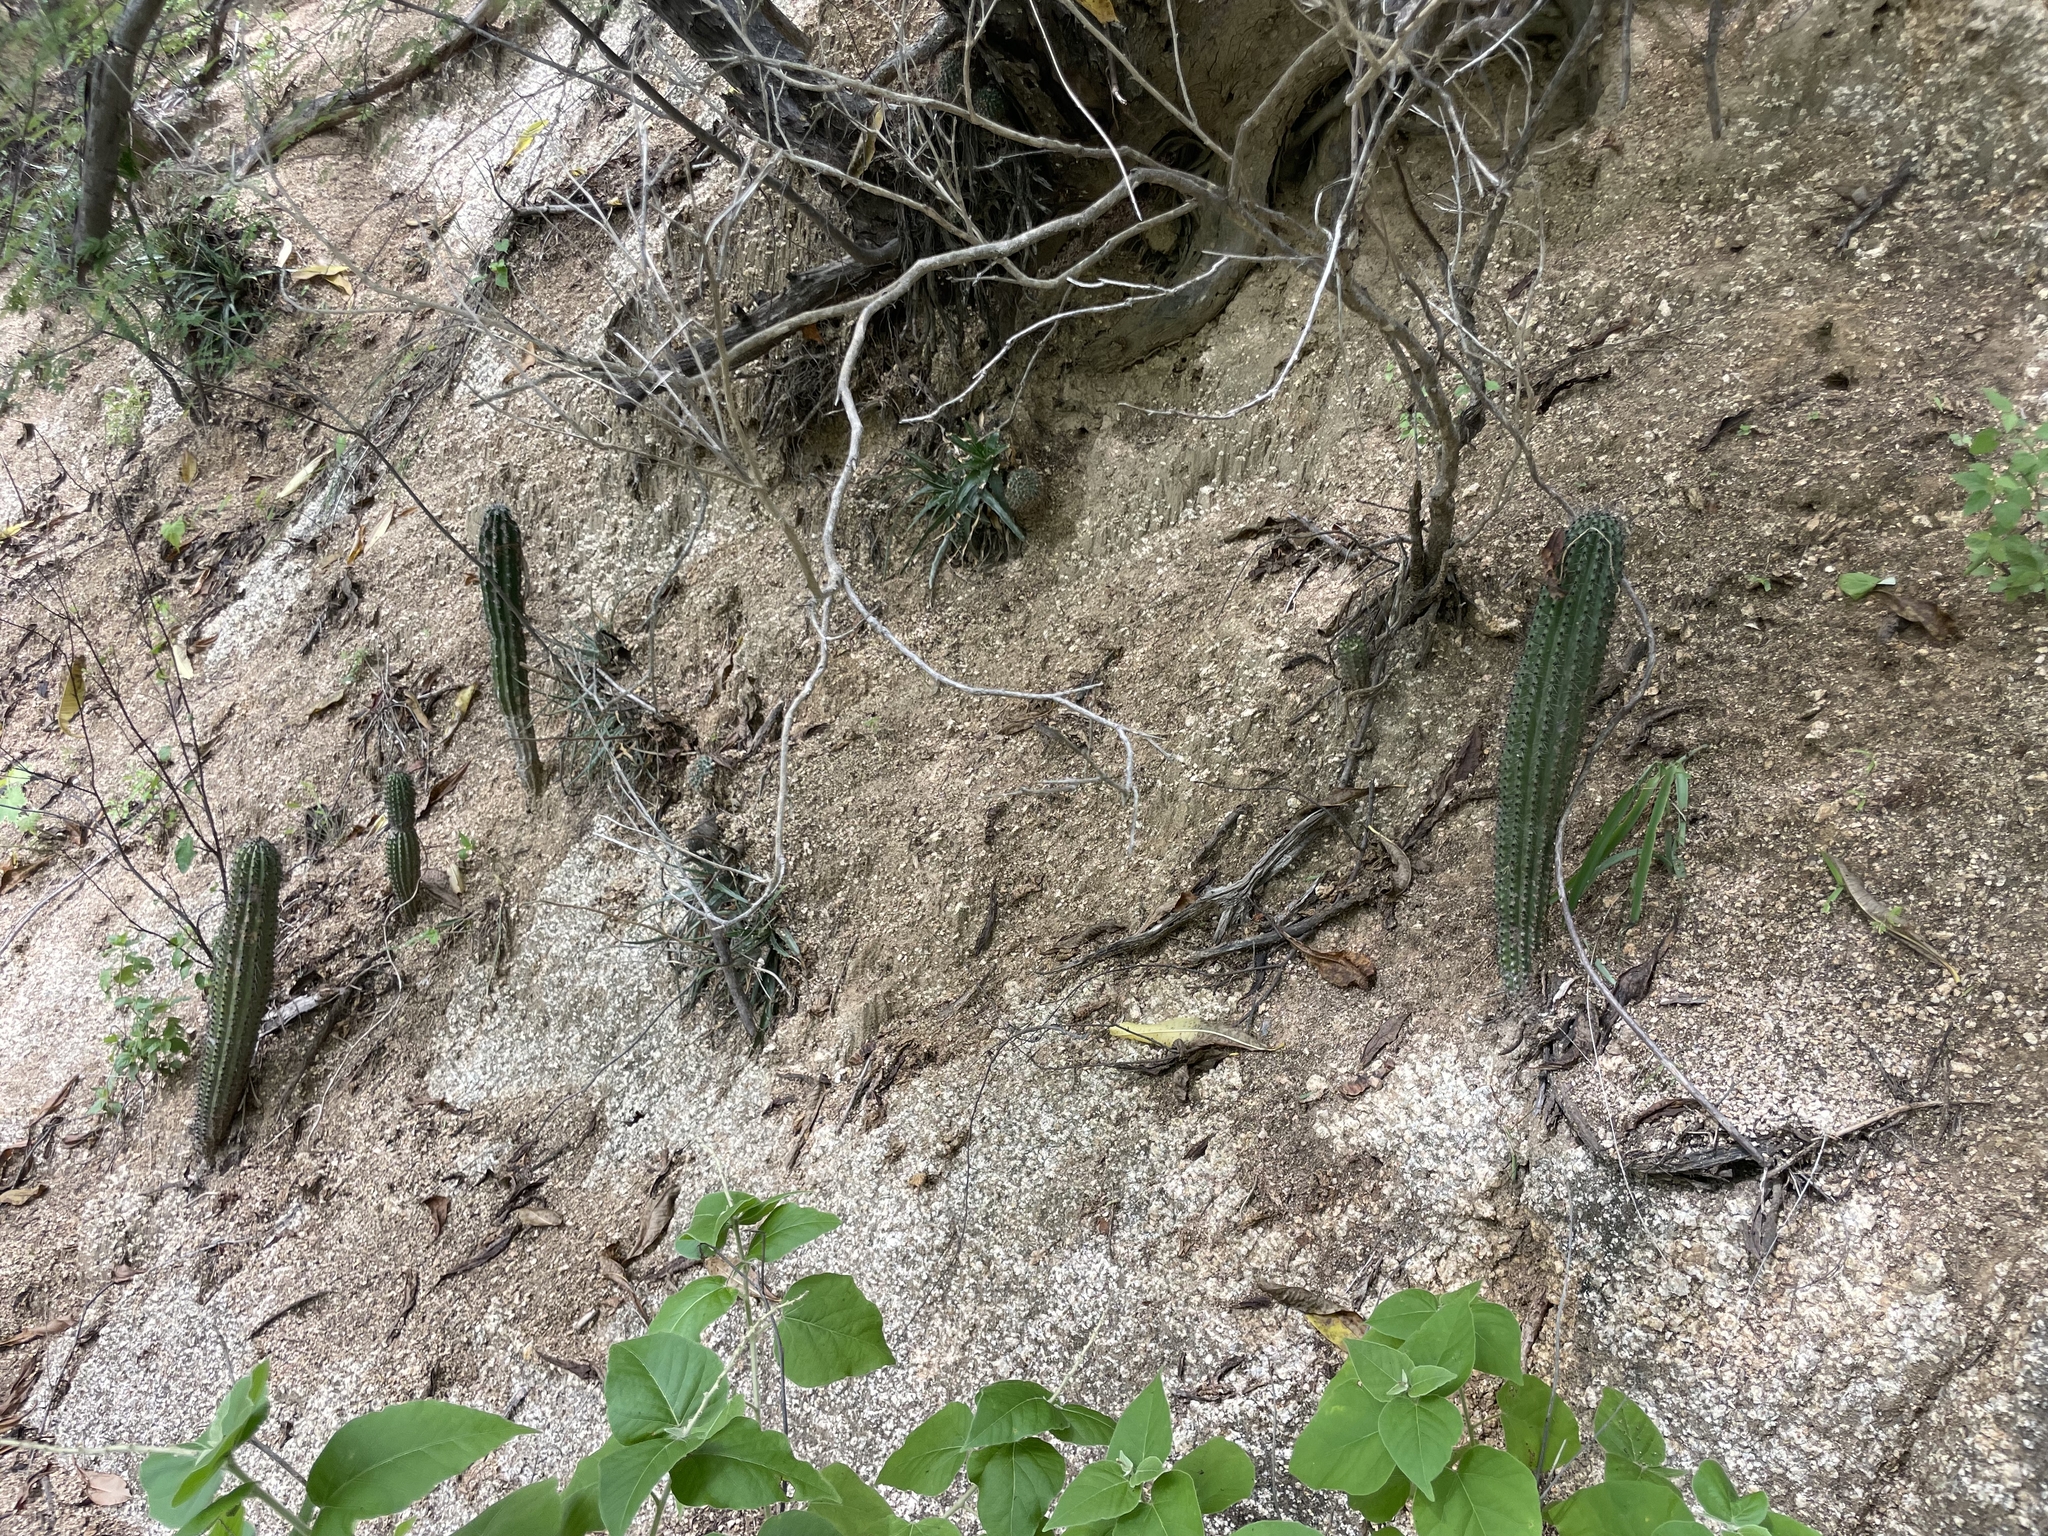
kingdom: Plantae
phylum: Tracheophyta
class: Magnoliopsida
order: Caryophyllales
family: Cactaceae
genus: Stenocereus
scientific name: Stenocereus thurberi
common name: Organ pipe cactus
